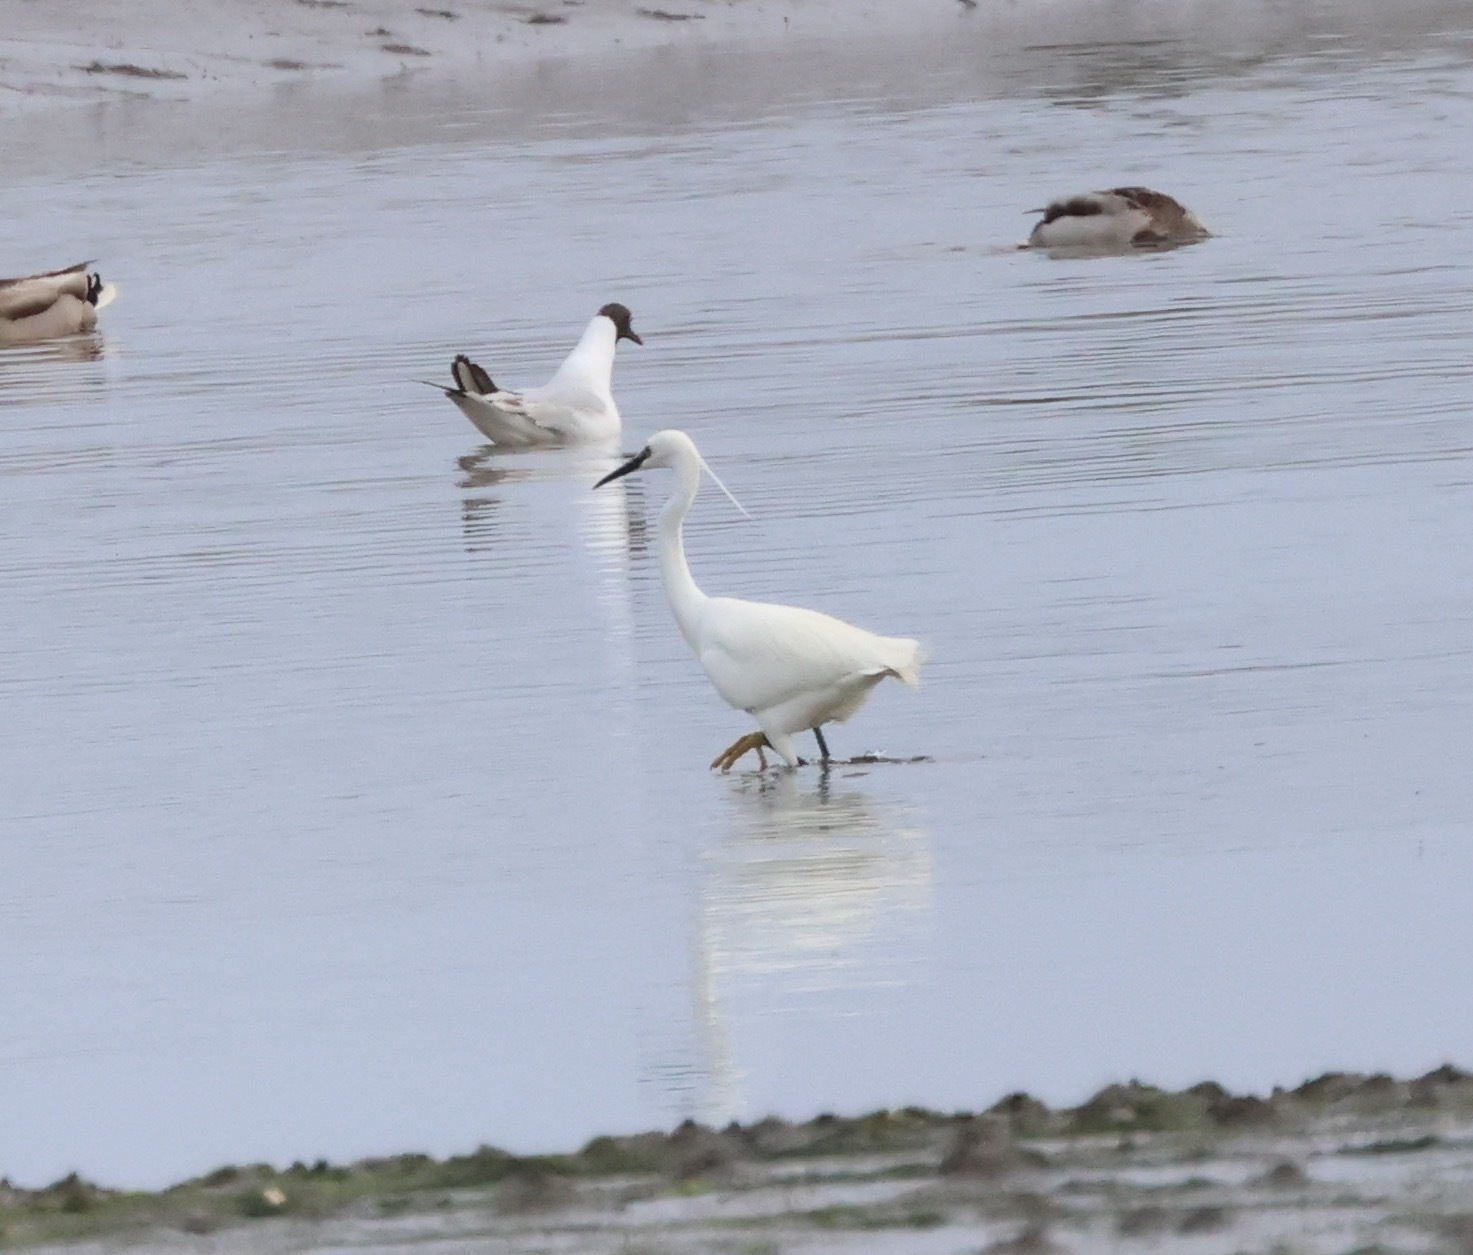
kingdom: Animalia
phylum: Chordata
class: Aves
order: Pelecaniformes
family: Ardeidae
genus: Egretta
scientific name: Egretta garzetta
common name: Little egret
